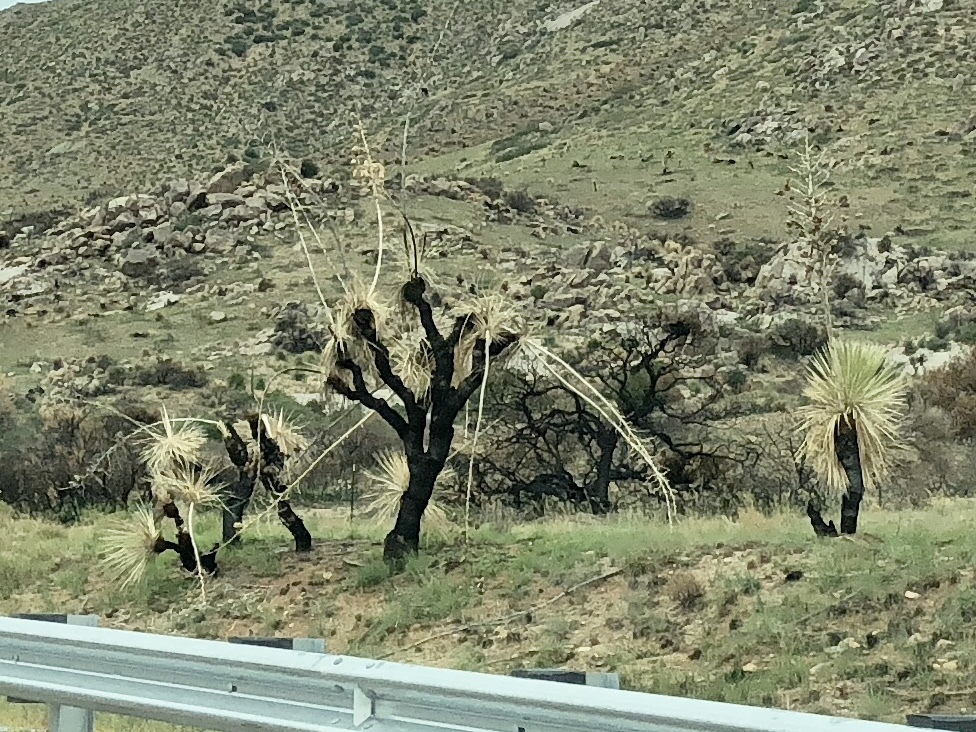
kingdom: Plantae
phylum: Tracheophyta
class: Liliopsida
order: Asparagales
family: Asparagaceae
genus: Yucca
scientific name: Yucca elata
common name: Palmella
